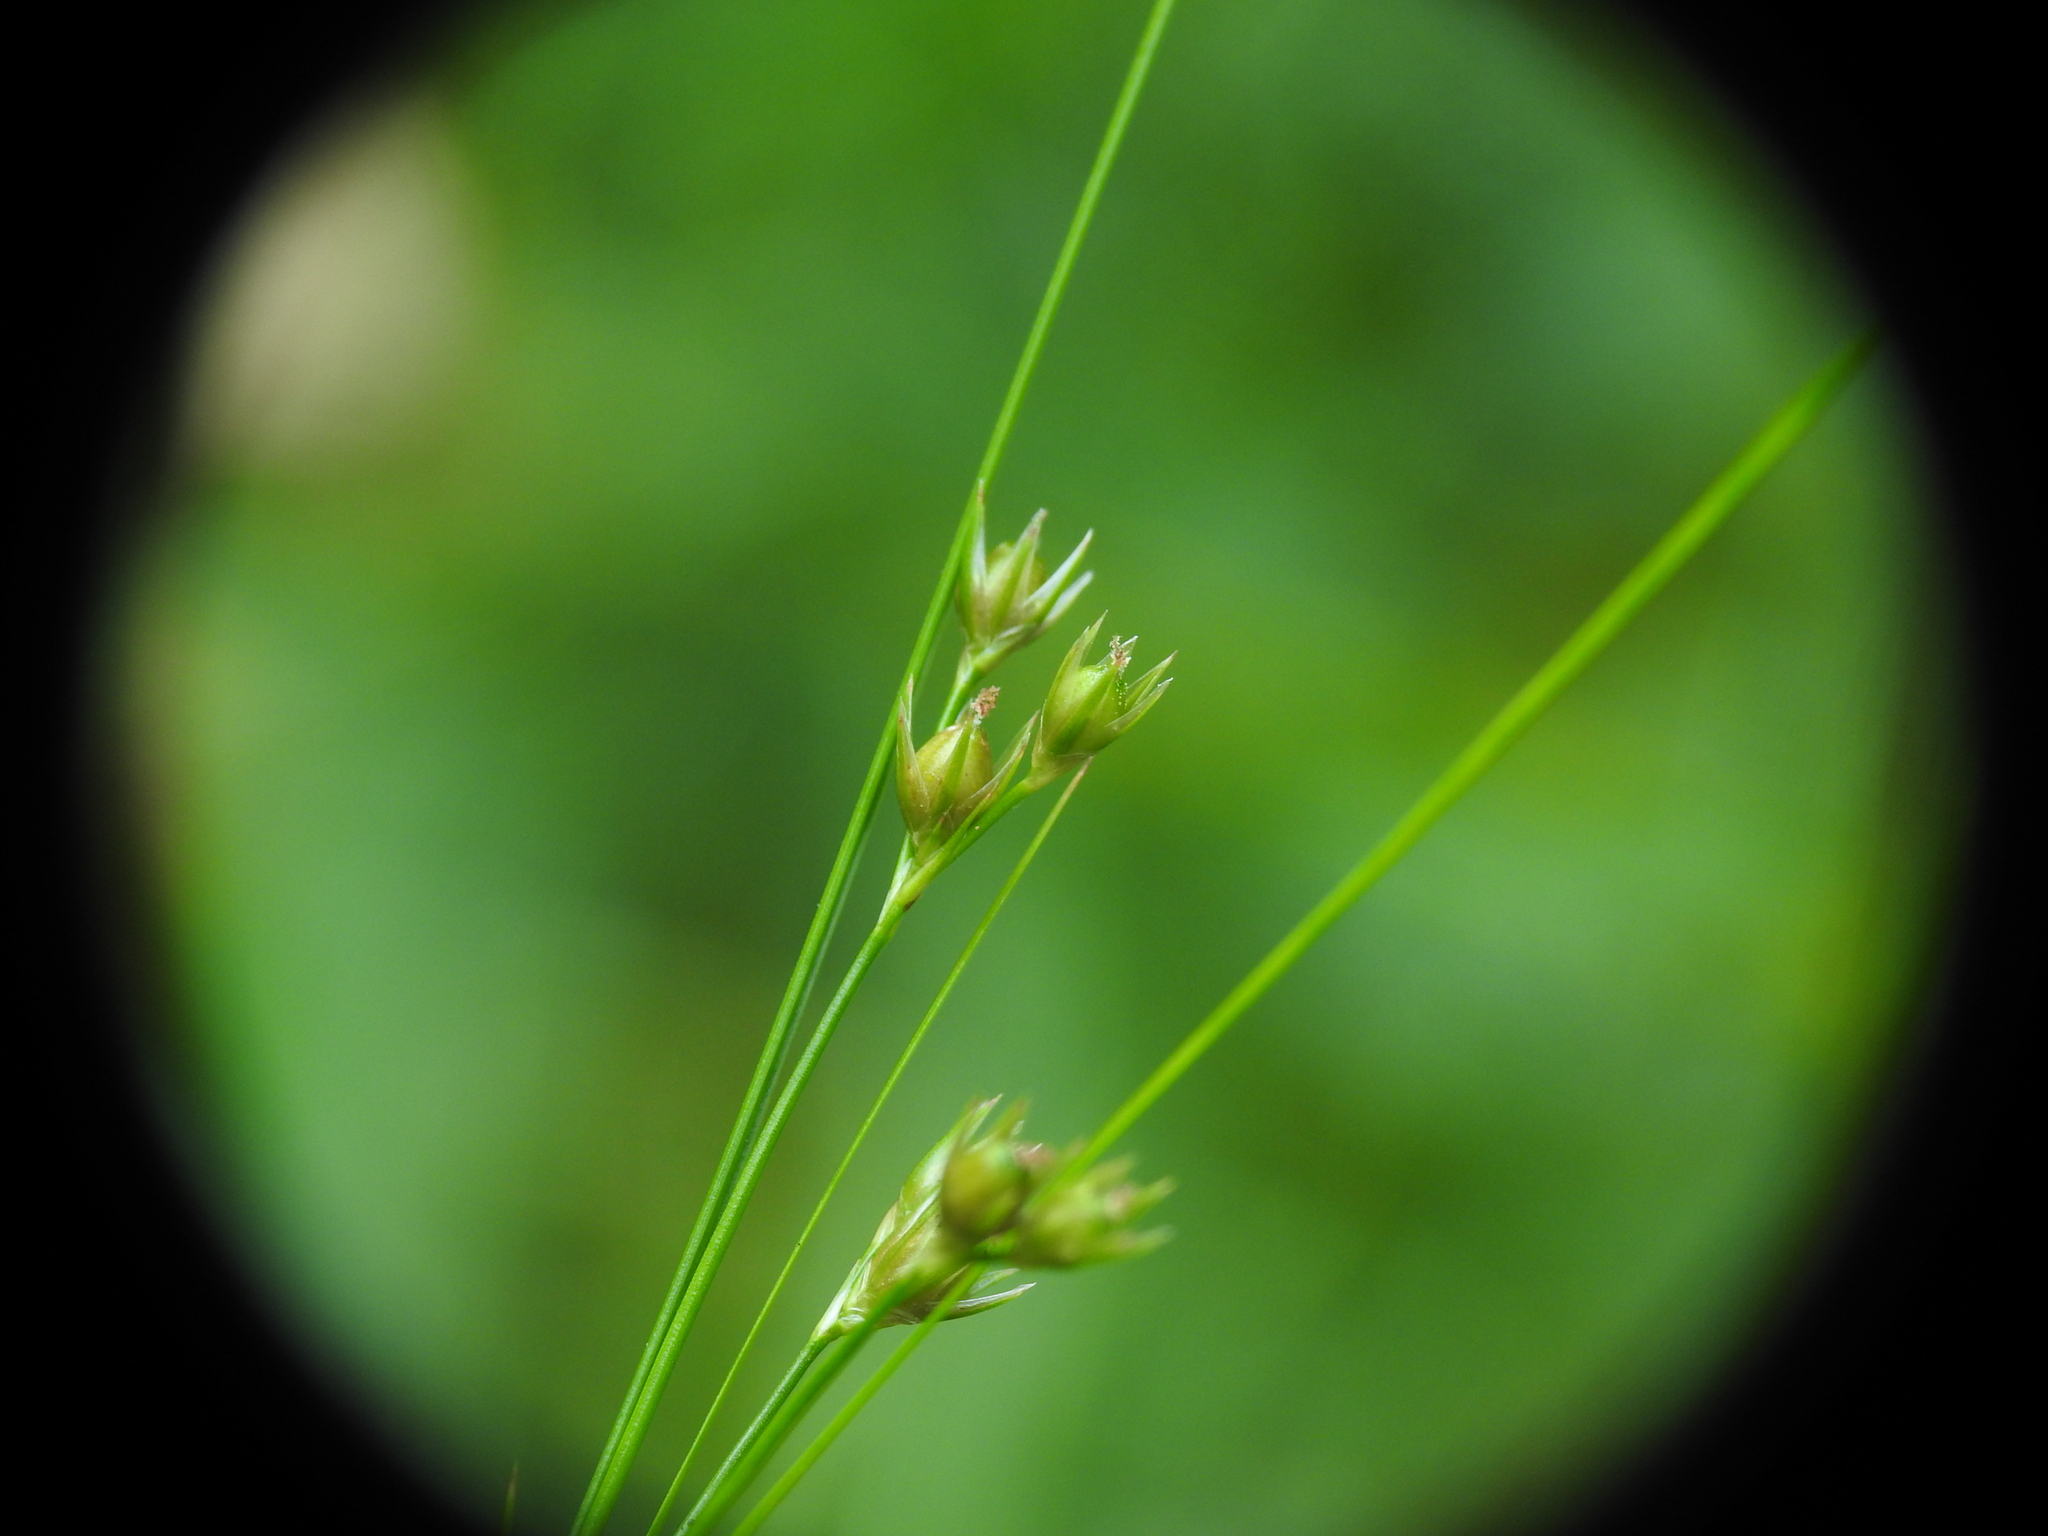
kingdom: Plantae
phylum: Tracheophyta
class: Liliopsida
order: Poales
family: Juncaceae
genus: Juncus
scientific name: Juncus tenuis
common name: Slender rush
